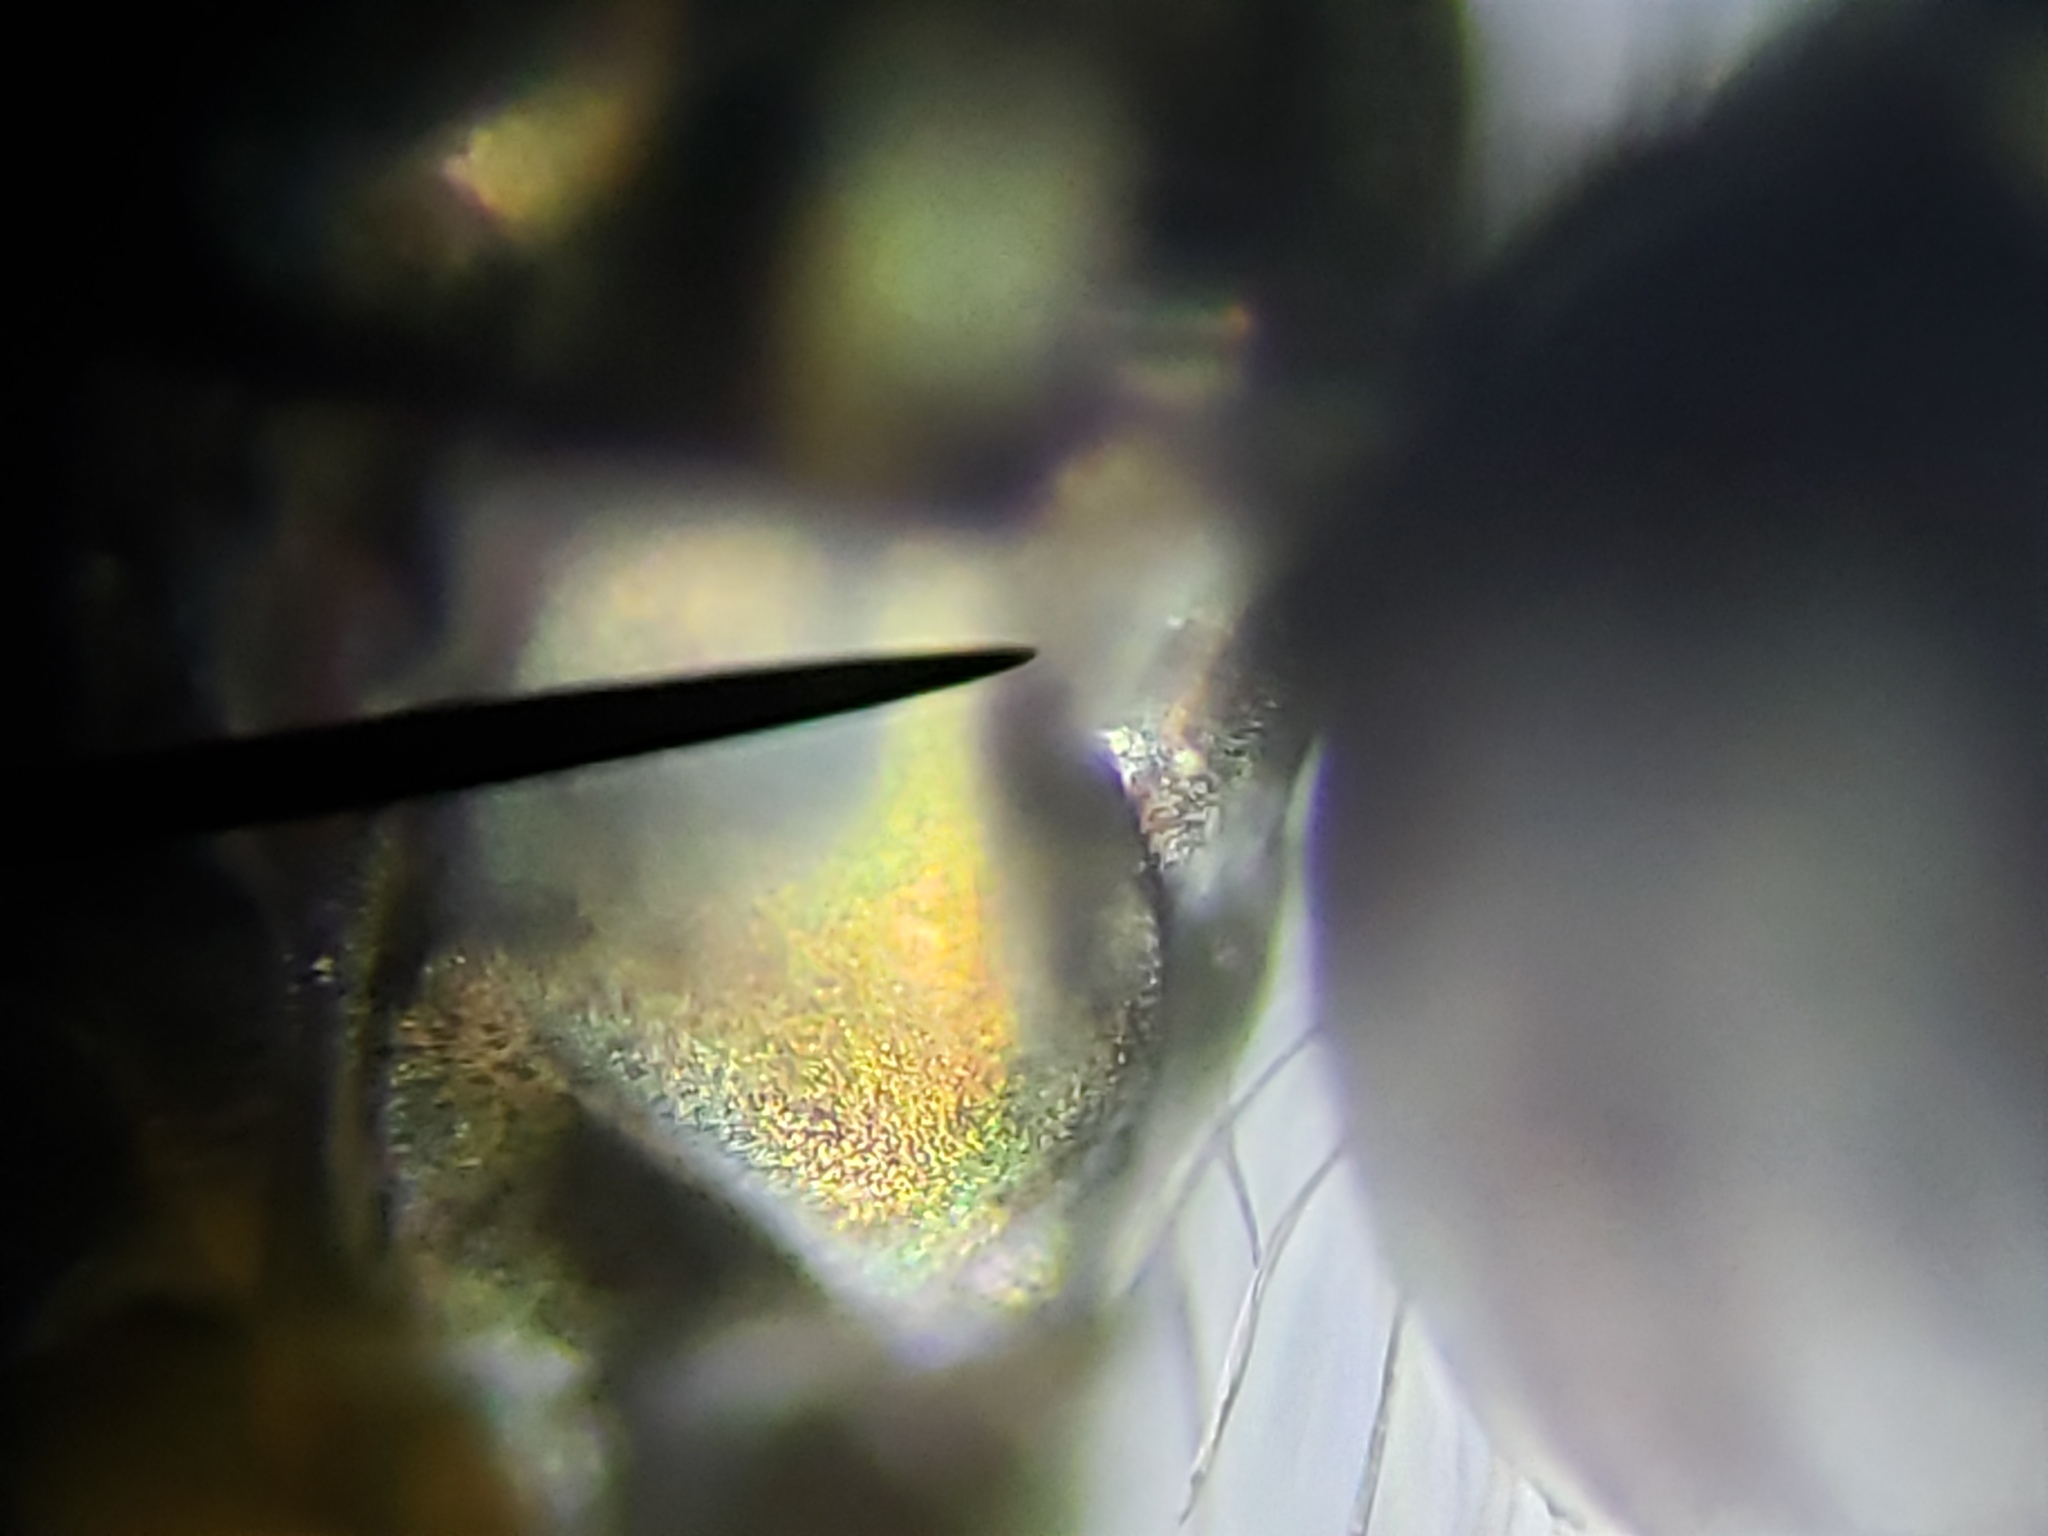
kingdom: Animalia
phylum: Arthropoda
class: Insecta
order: Diptera
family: Dolichopodidae
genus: Achradocera
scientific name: Achradocera barbata
